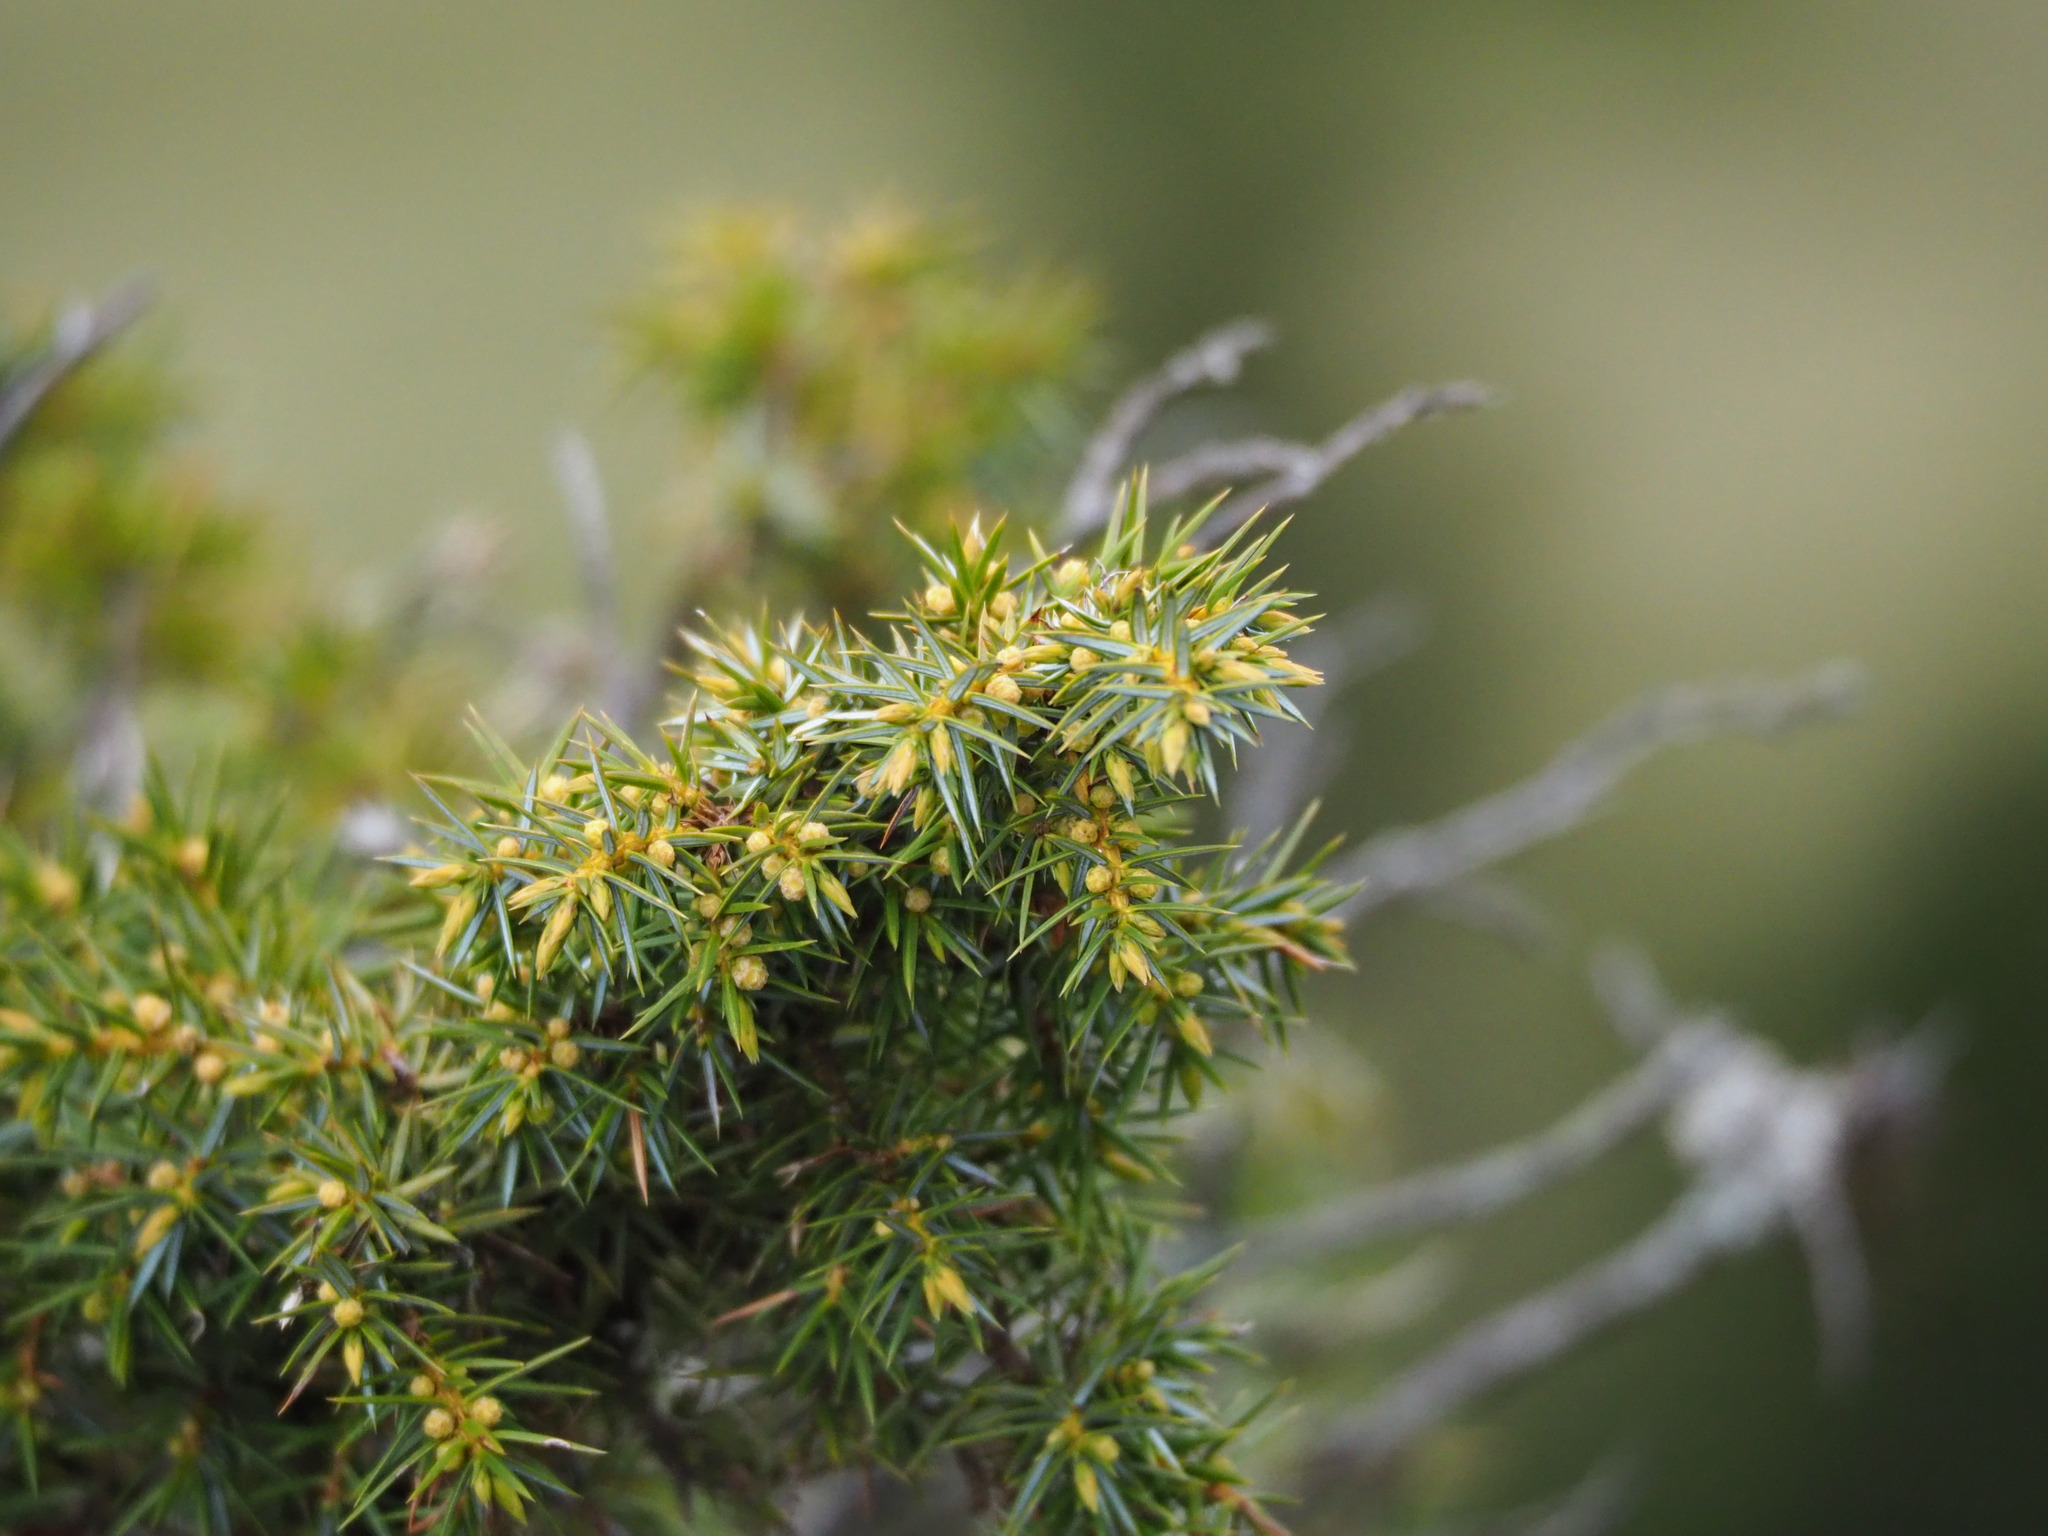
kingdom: Plantae
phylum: Tracheophyta
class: Pinopsida
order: Pinales
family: Cupressaceae
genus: Juniperus
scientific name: Juniperus formosana
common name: Formosan juniper
